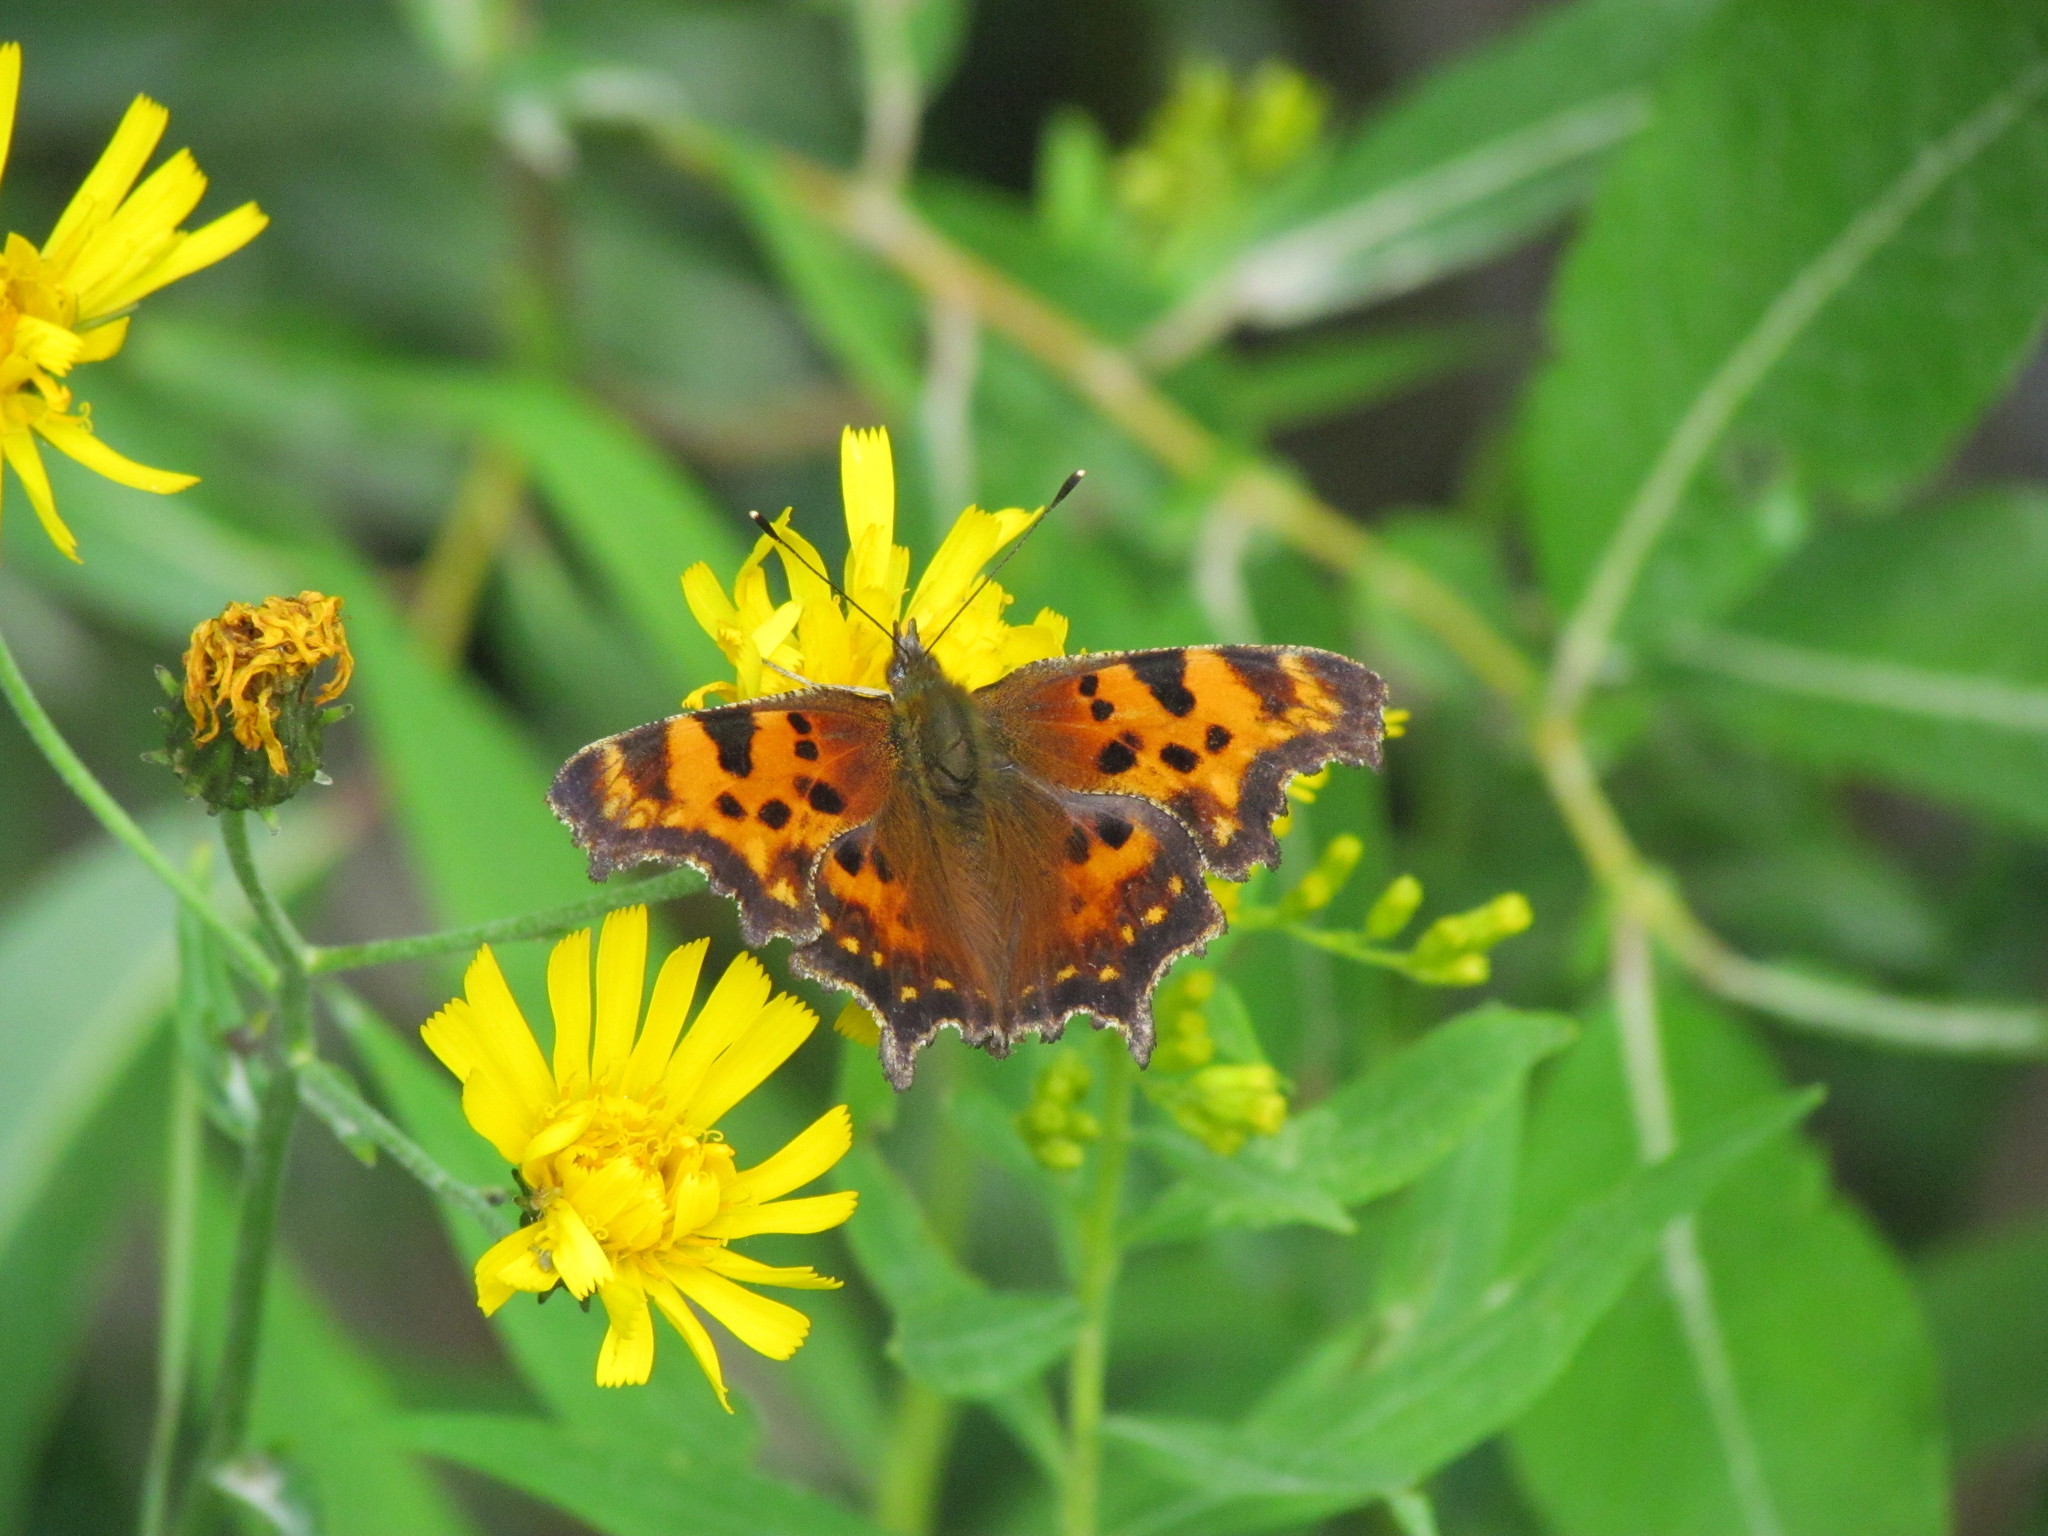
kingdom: Animalia
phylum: Arthropoda
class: Insecta
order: Lepidoptera
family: Nymphalidae
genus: Polygonia
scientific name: Polygonia faunus
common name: Green comma
